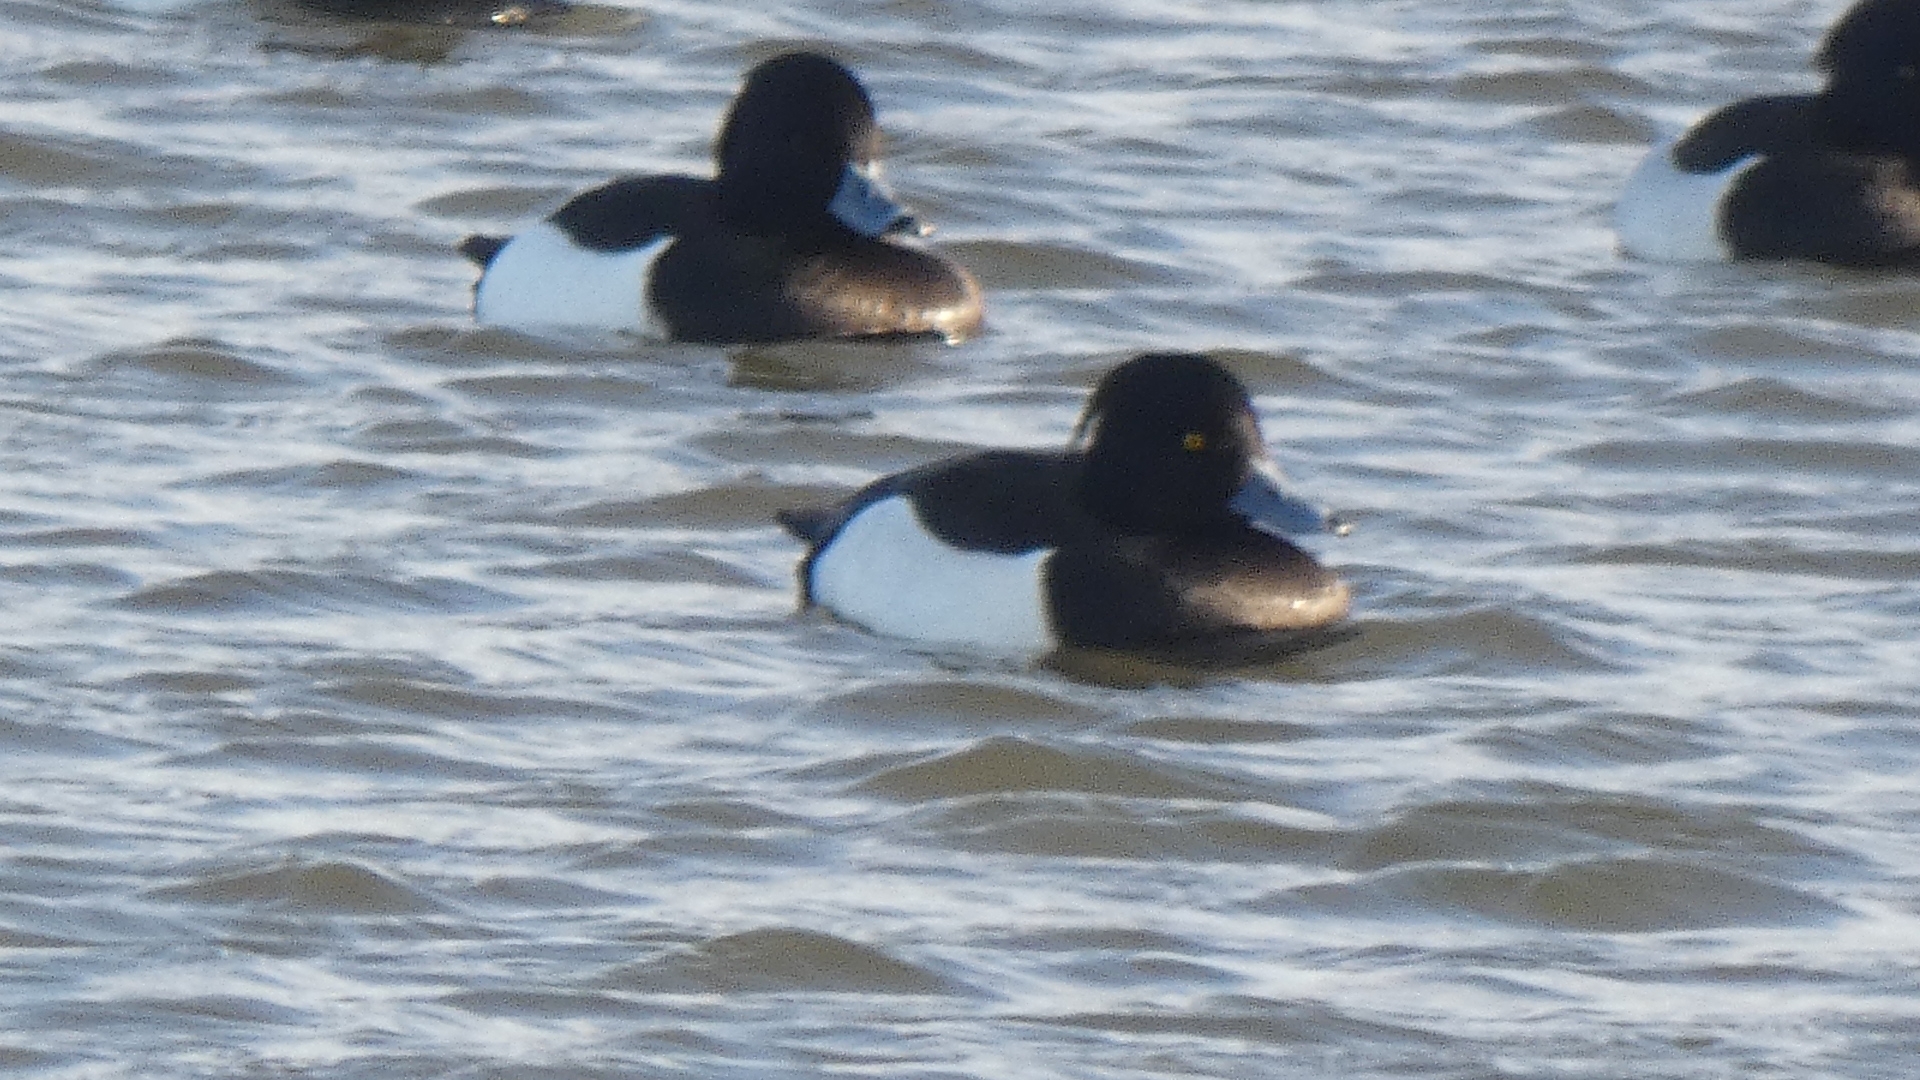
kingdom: Animalia
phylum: Chordata
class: Aves
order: Anseriformes
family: Anatidae
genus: Aythya
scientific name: Aythya fuligula
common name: Tufted duck
